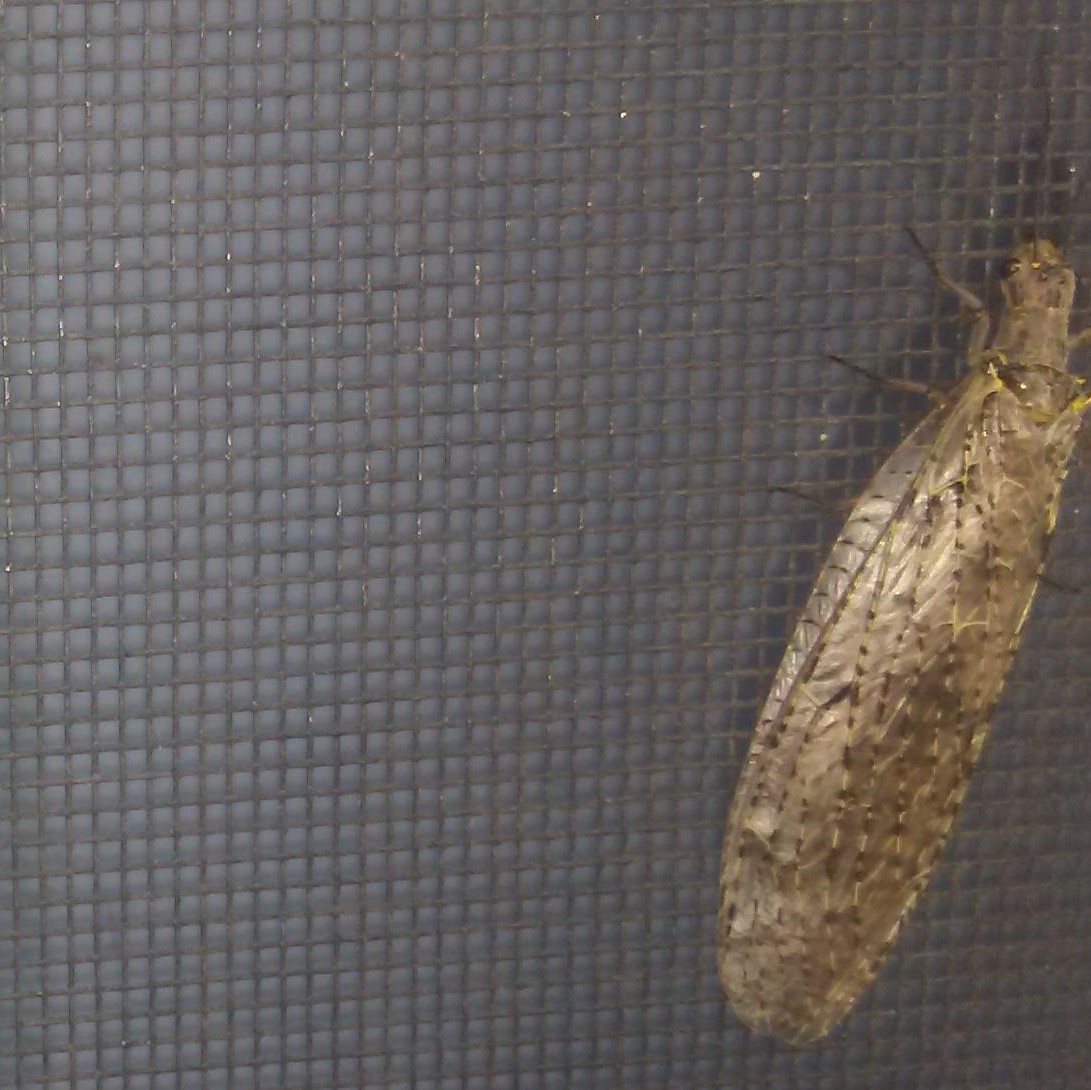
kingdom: Animalia
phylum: Arthropoda
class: Insecta
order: Megaloptera
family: Corydalidae
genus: Chauliodes
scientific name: Chauliodes rastricornis
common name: Spring fishfly
